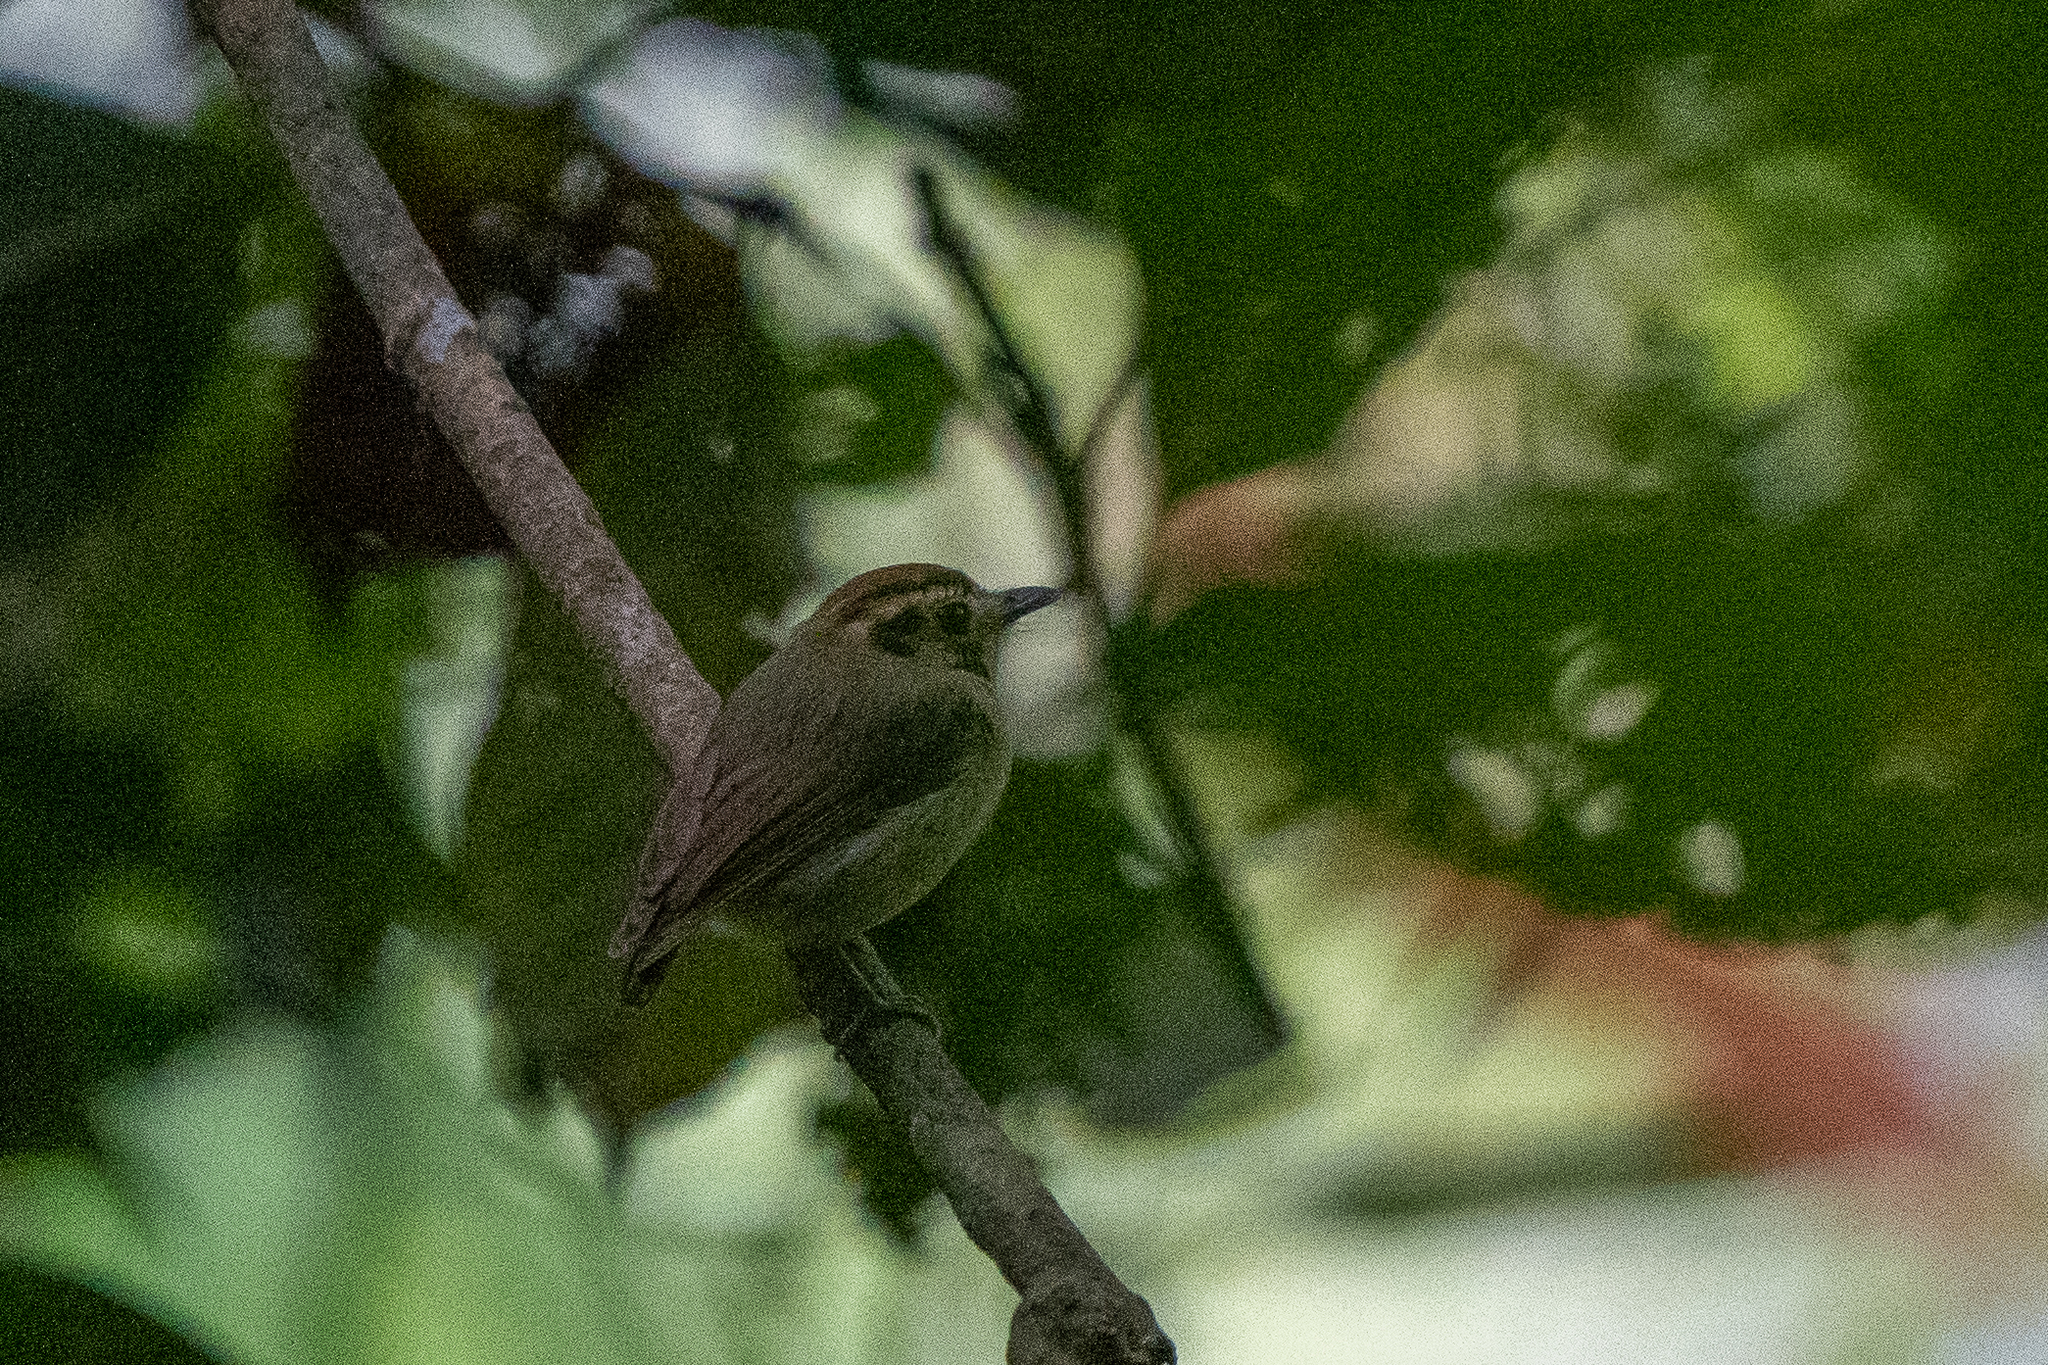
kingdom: Animalia
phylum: Chordata
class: Aves
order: Passeriformes
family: Tyrannidae
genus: Platyrinchus
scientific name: Platyrinchus coronatus
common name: Golden-crowned spadebill
